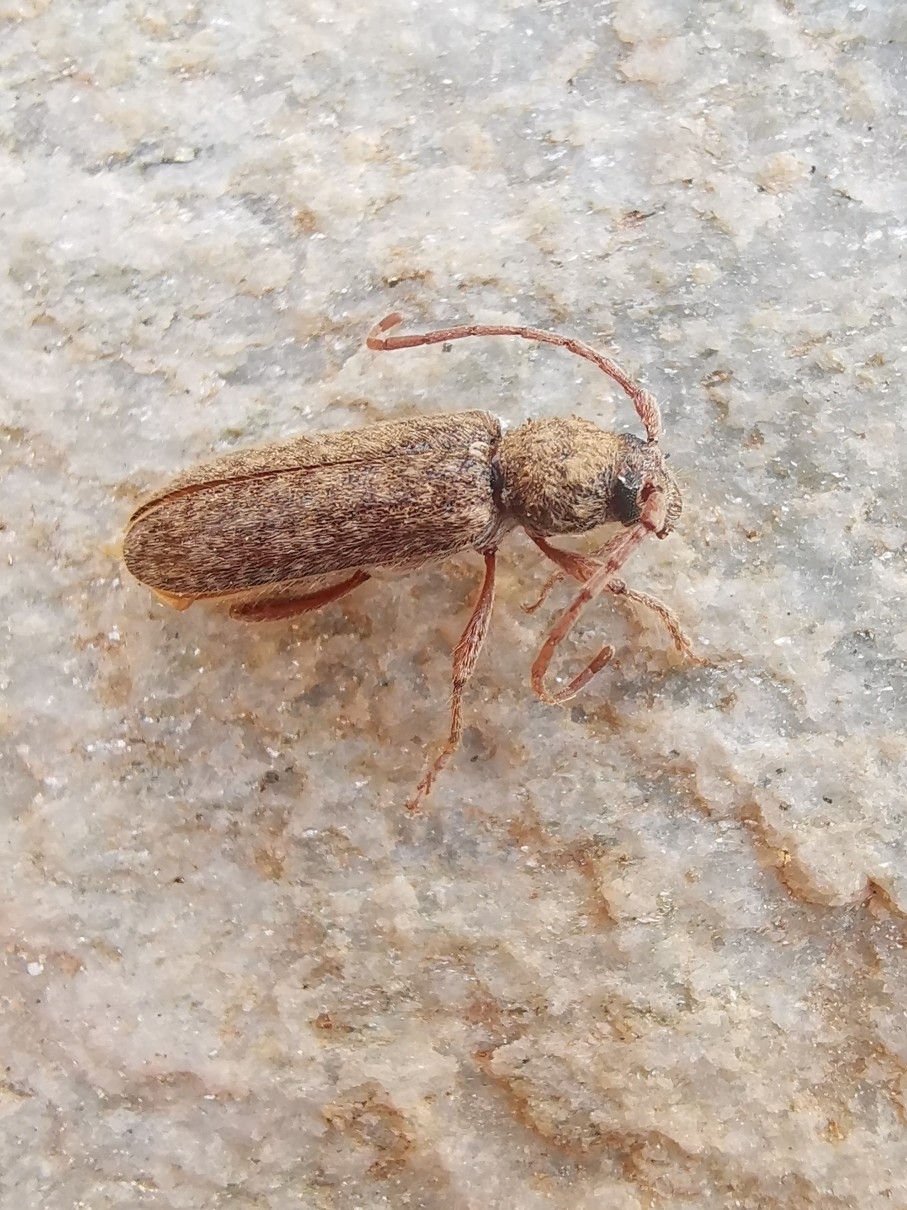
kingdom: Animalia
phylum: Arthropoda
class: Insecta
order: Coleoptera
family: Cerambycidae
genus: Trichoferus
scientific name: Trichoferus fasciculatus
